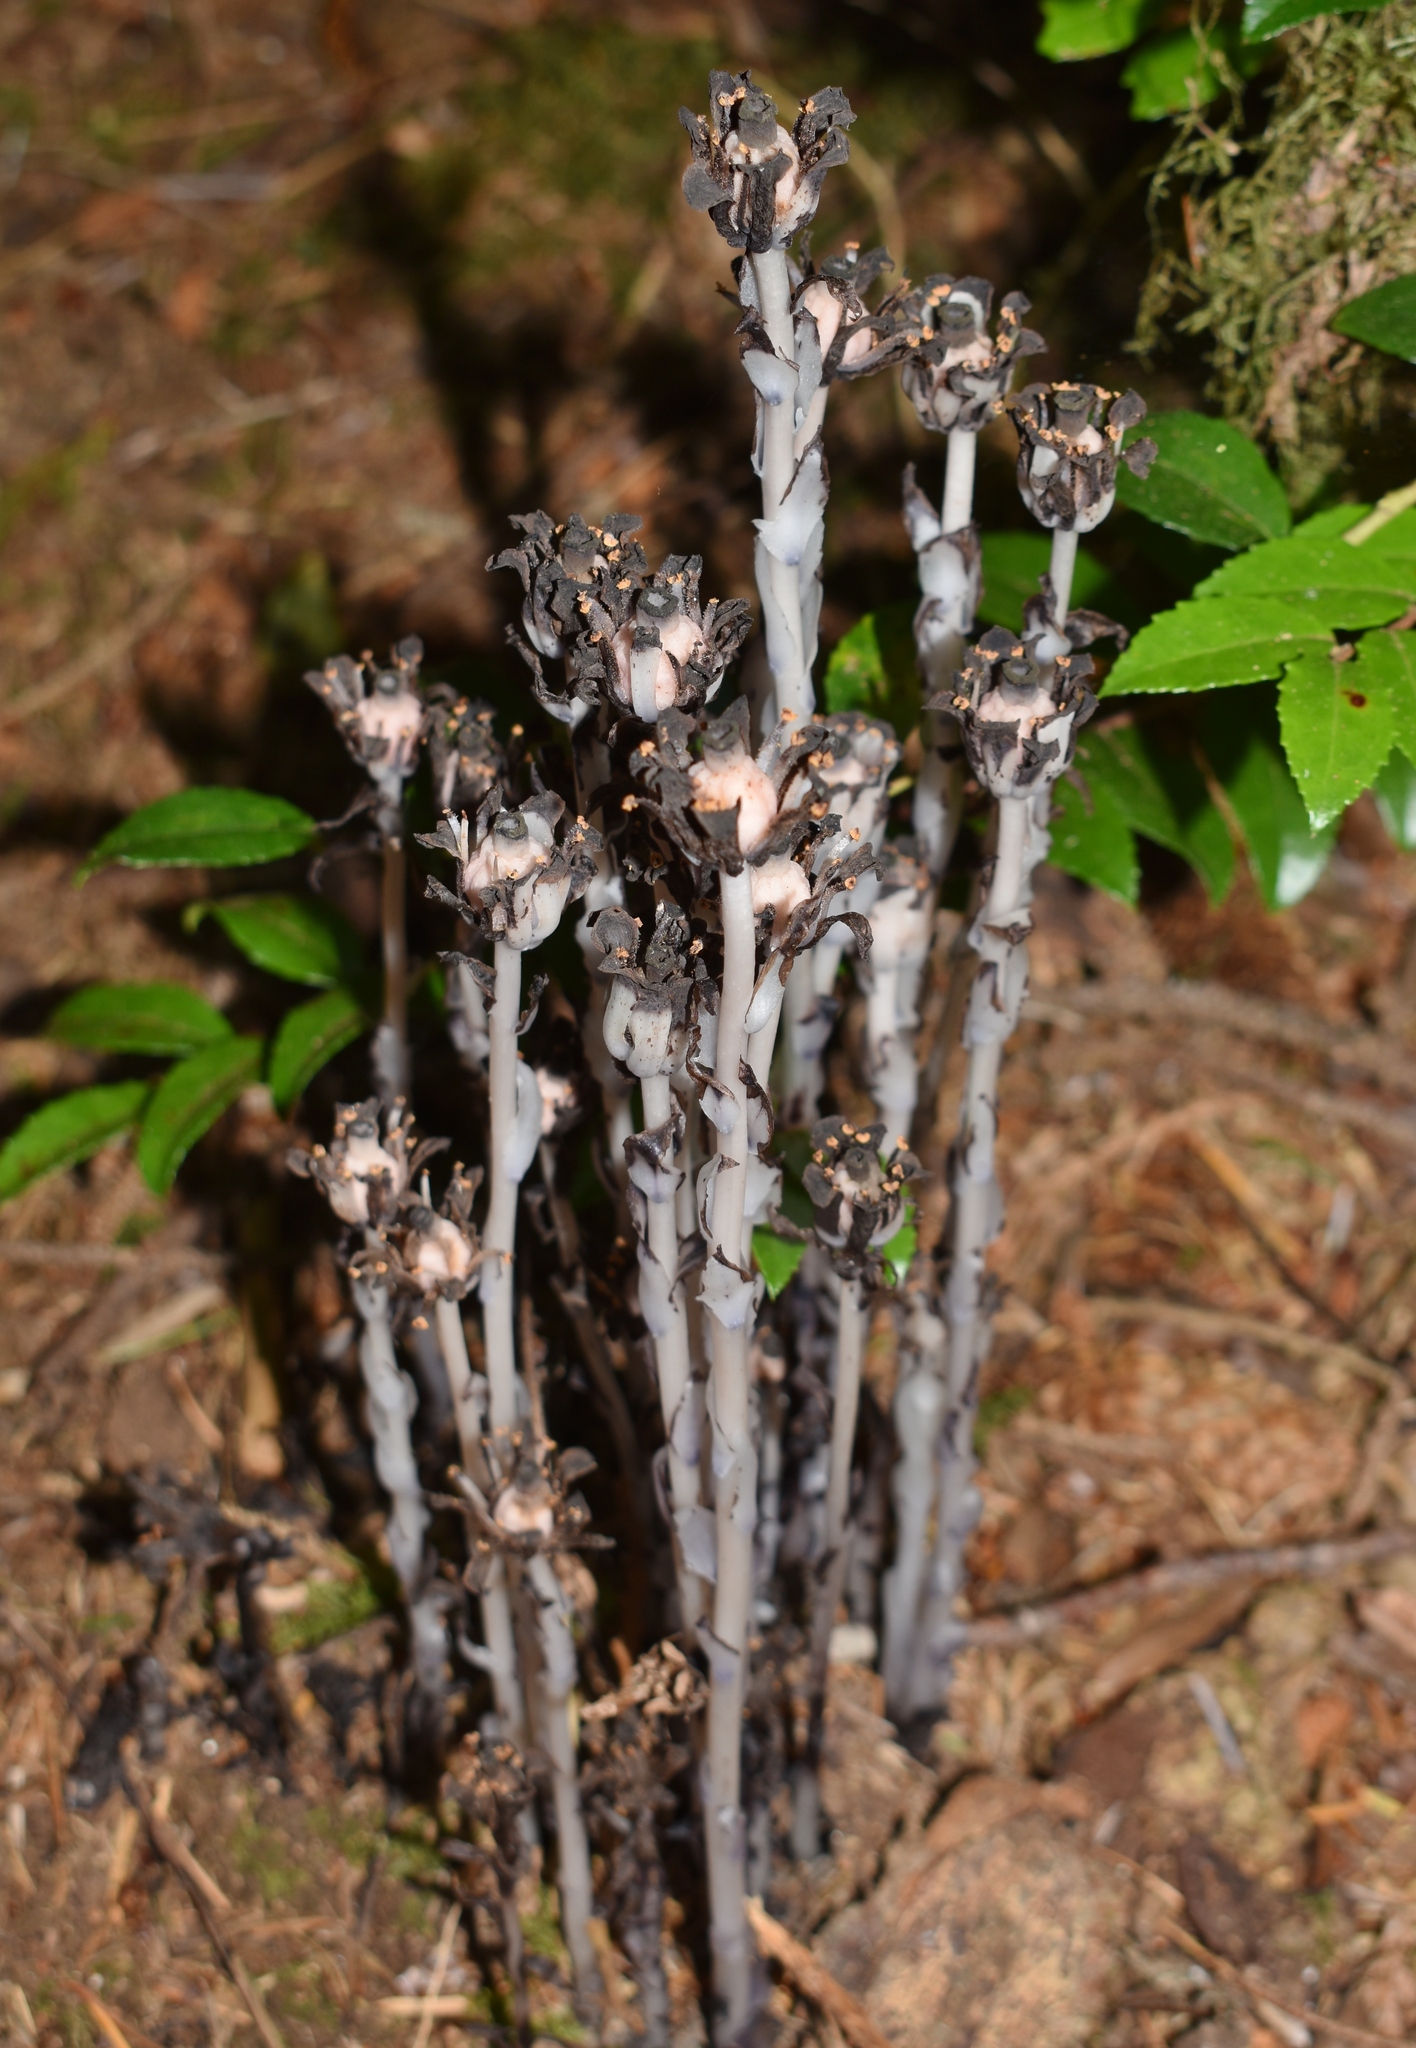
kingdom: Plantae
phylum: Tracheophyta
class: Magnoliopsida
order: Ericales
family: Ericaceae
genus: Monotropa
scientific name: Monotropa uniflora
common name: Convulsion root
